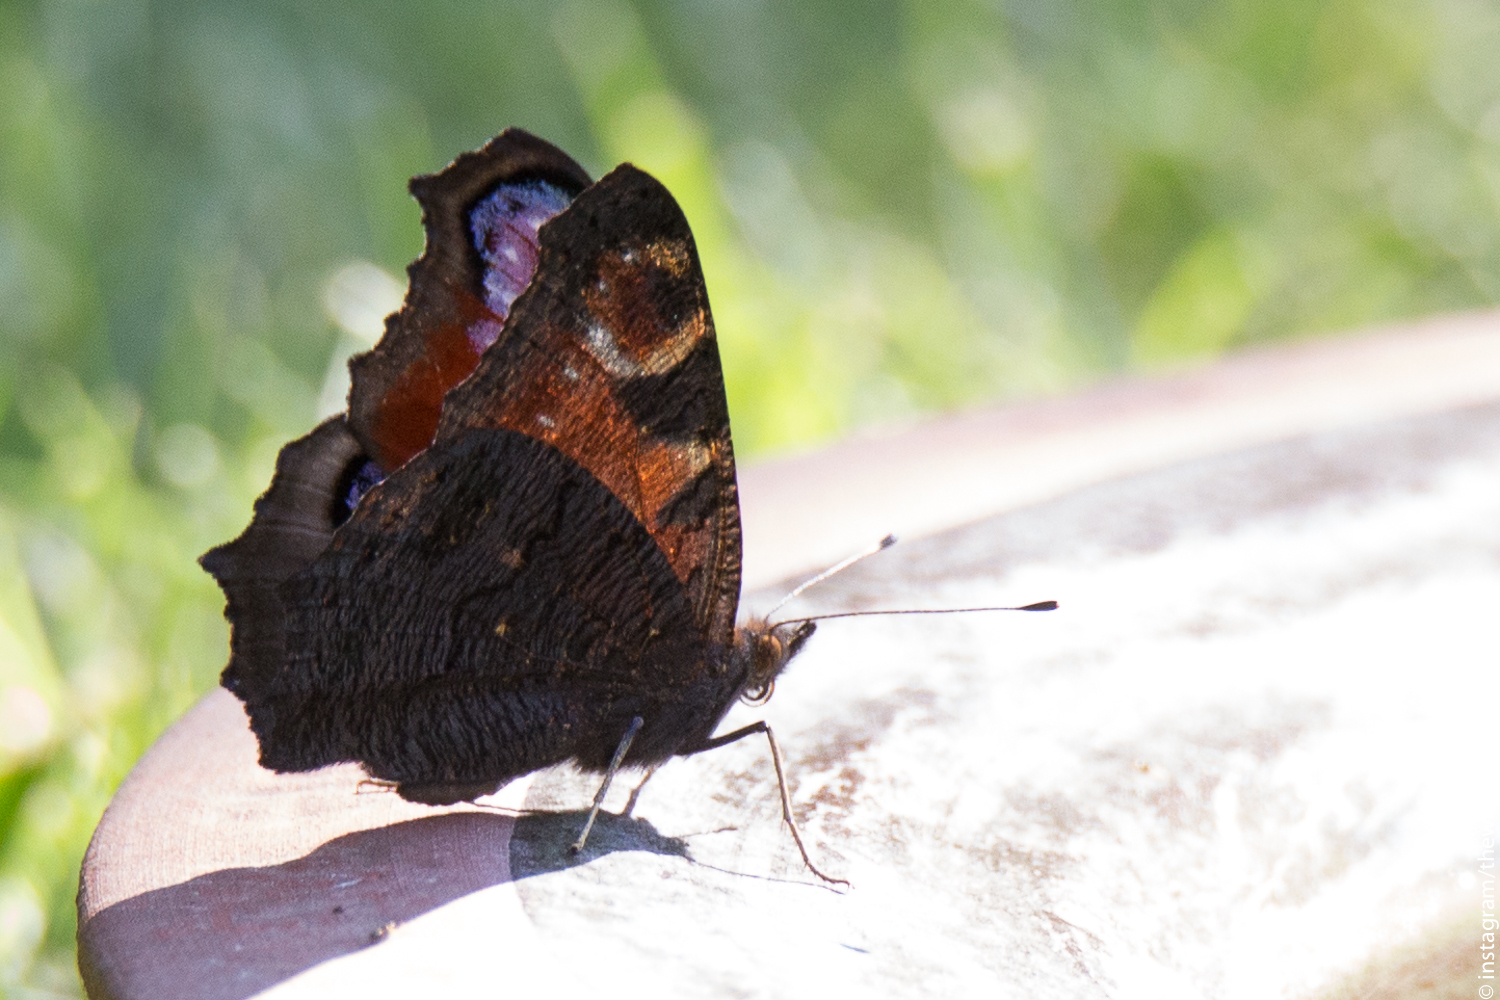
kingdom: Animalia
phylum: Arthropoda
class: Insecta
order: Lepidoptera
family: Nymphalidae
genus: Aglais
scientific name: Aglais io
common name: Peacock
